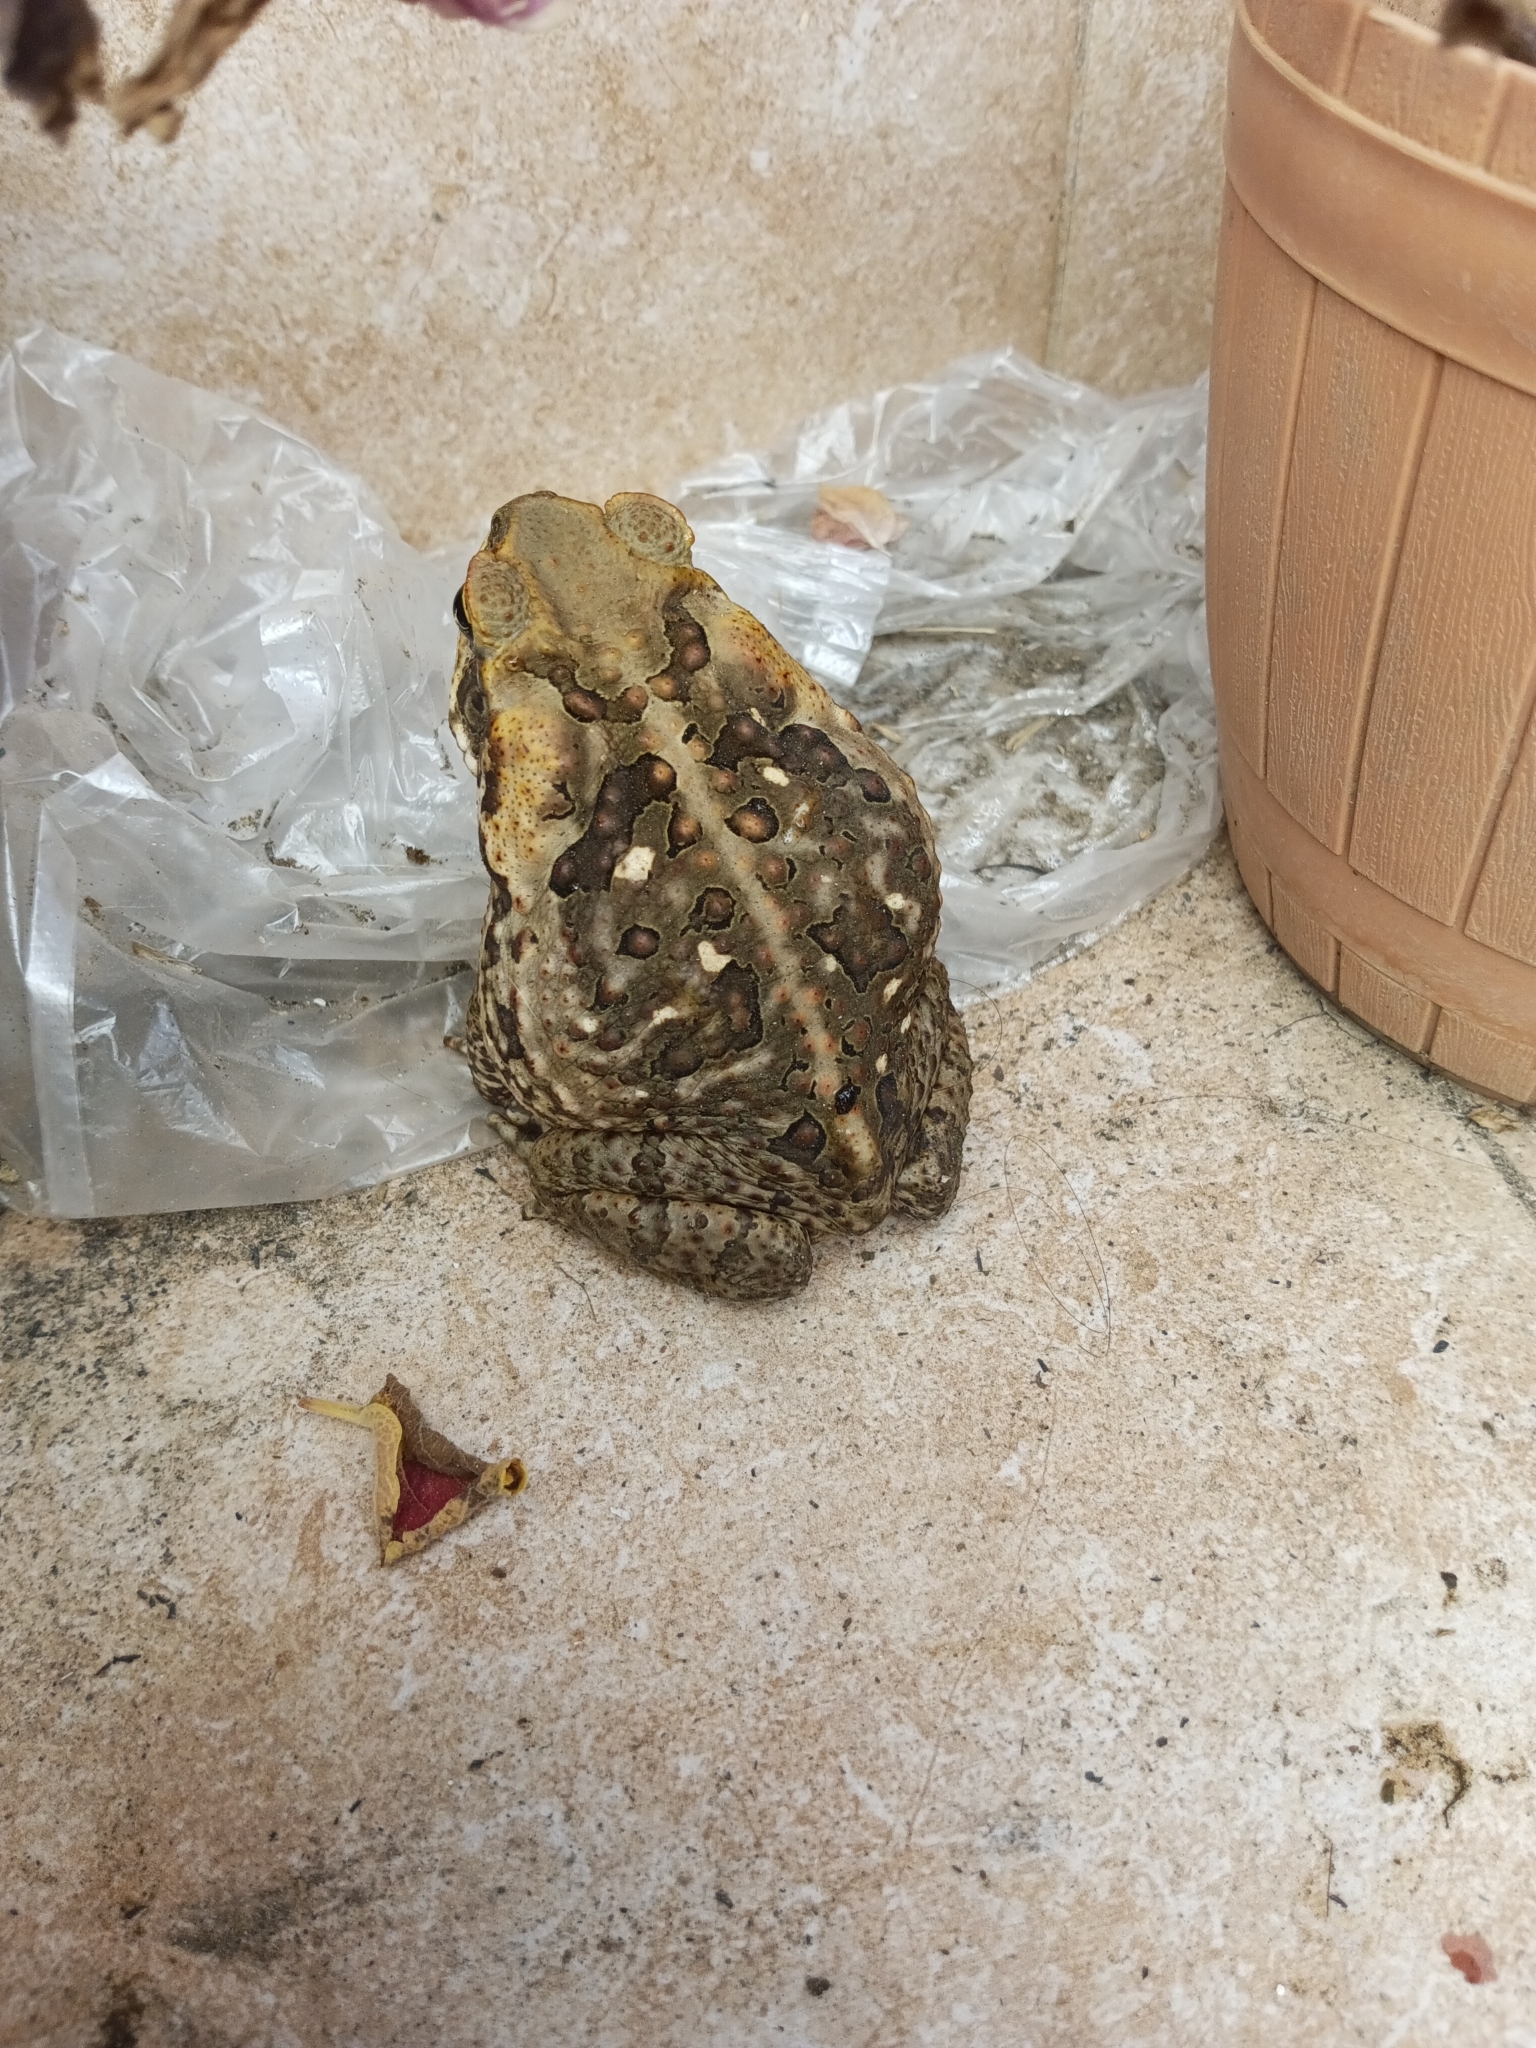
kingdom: Animalia
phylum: Chordata
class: Amphibia
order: Anura
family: Bufonidae
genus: Rhinella
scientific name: Rhinella marina
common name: Cane toad
